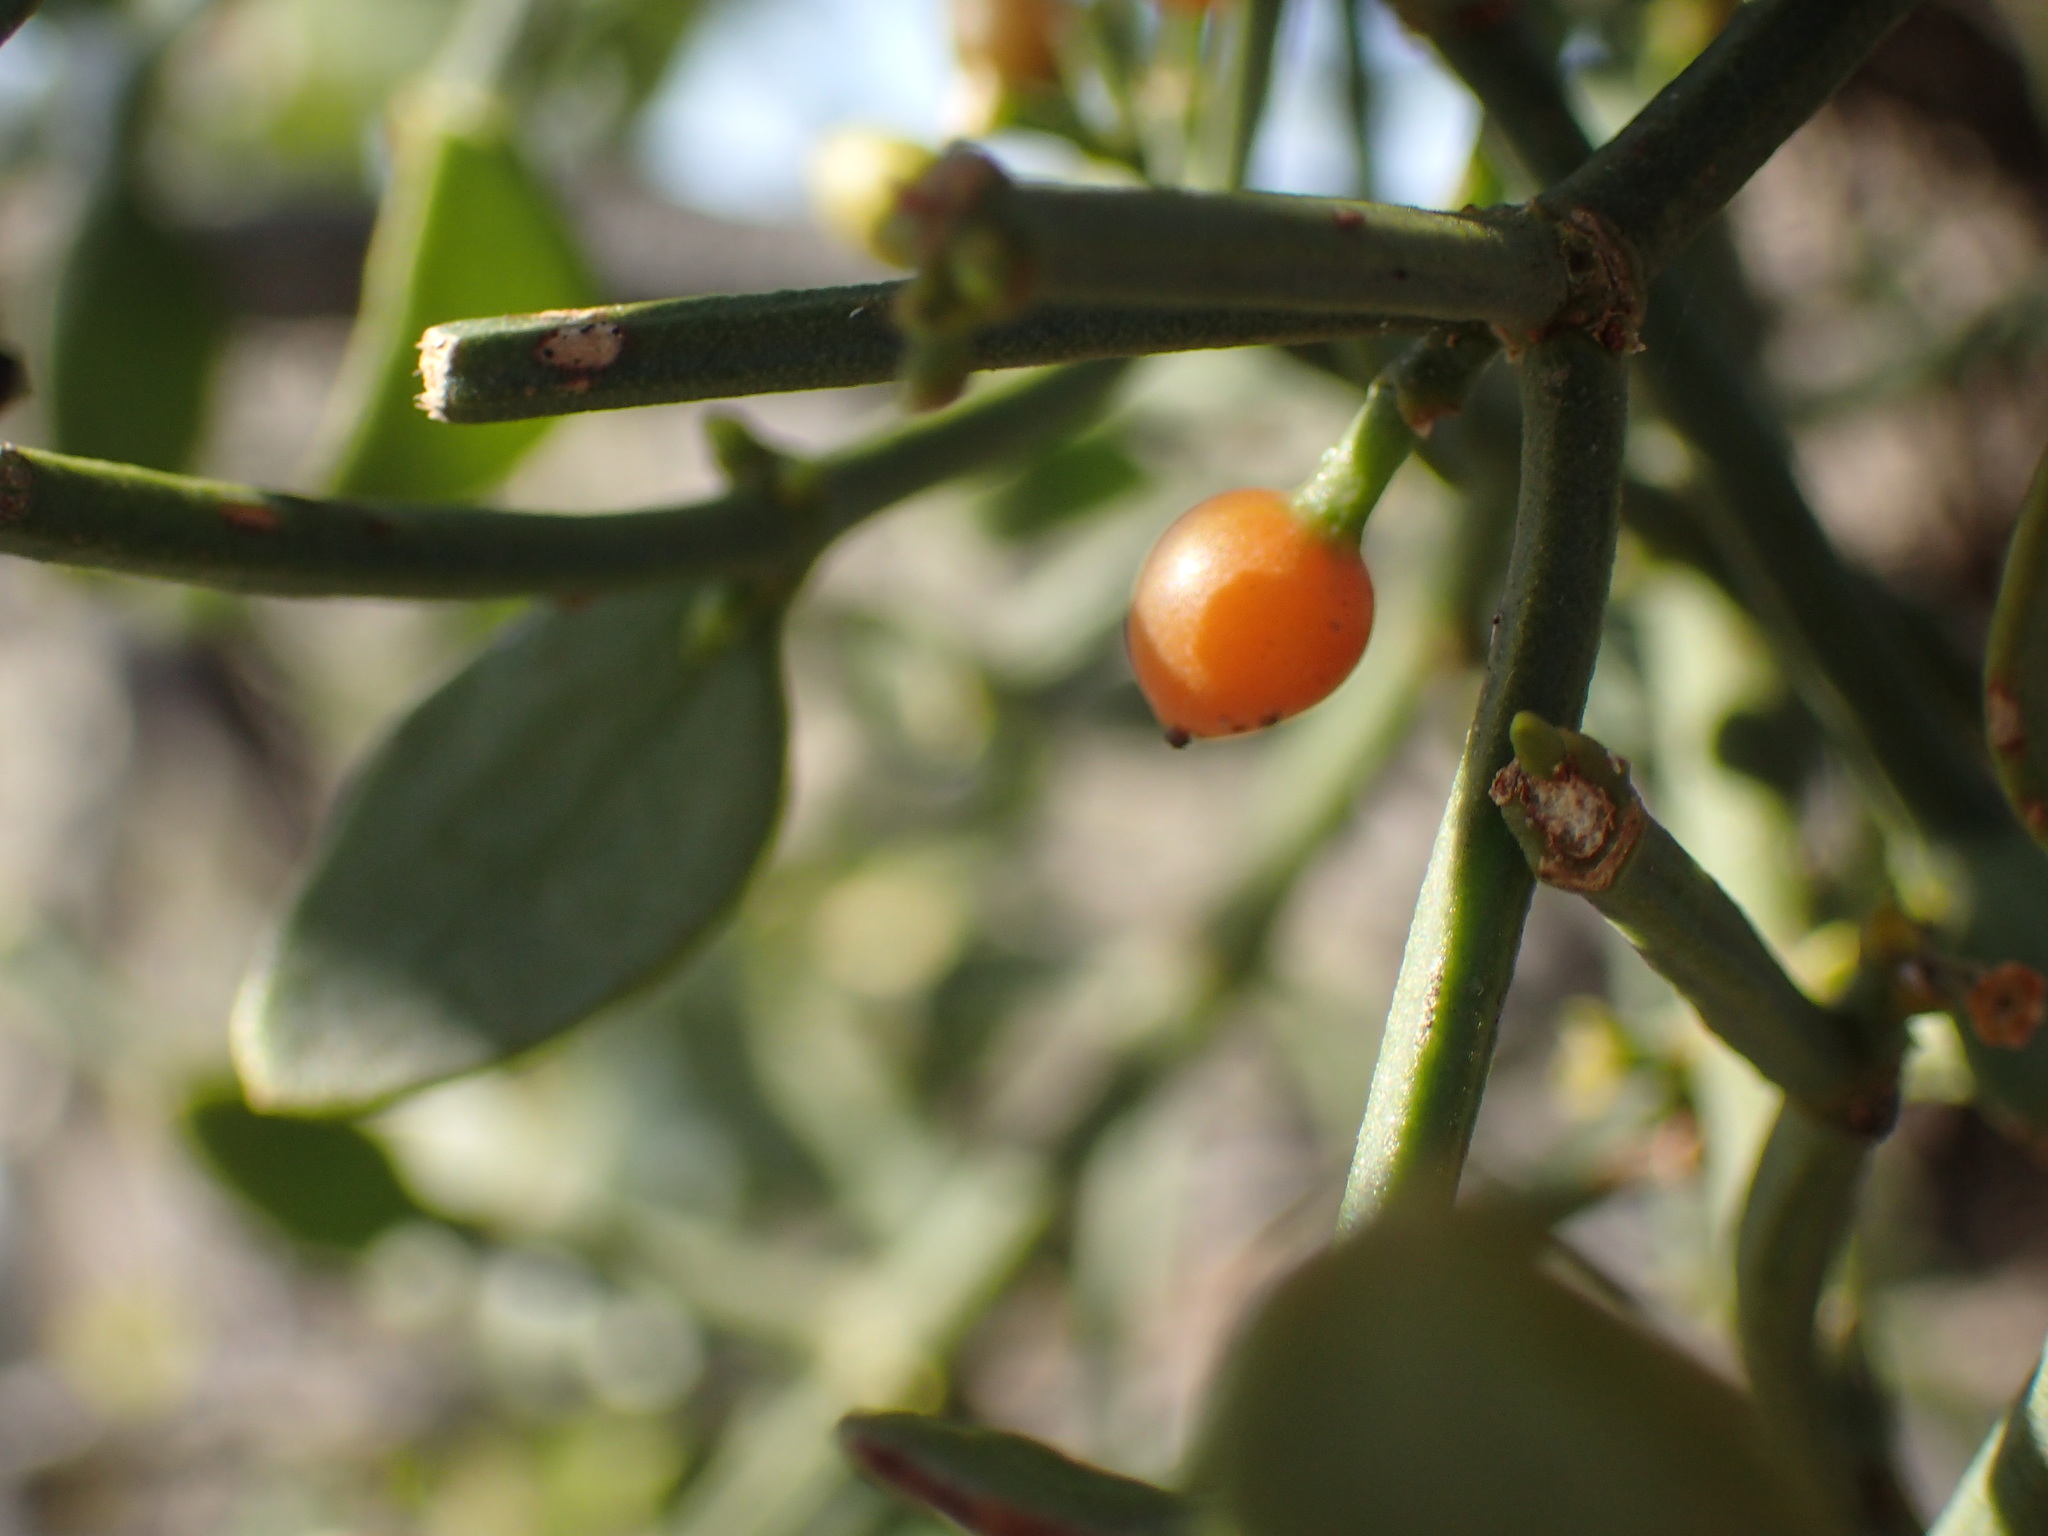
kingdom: Plantae
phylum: Tracheophyta
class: Magnoliopsida
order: Santalales
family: Viscaceae
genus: Viscum
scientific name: Viscum rotundifolium
